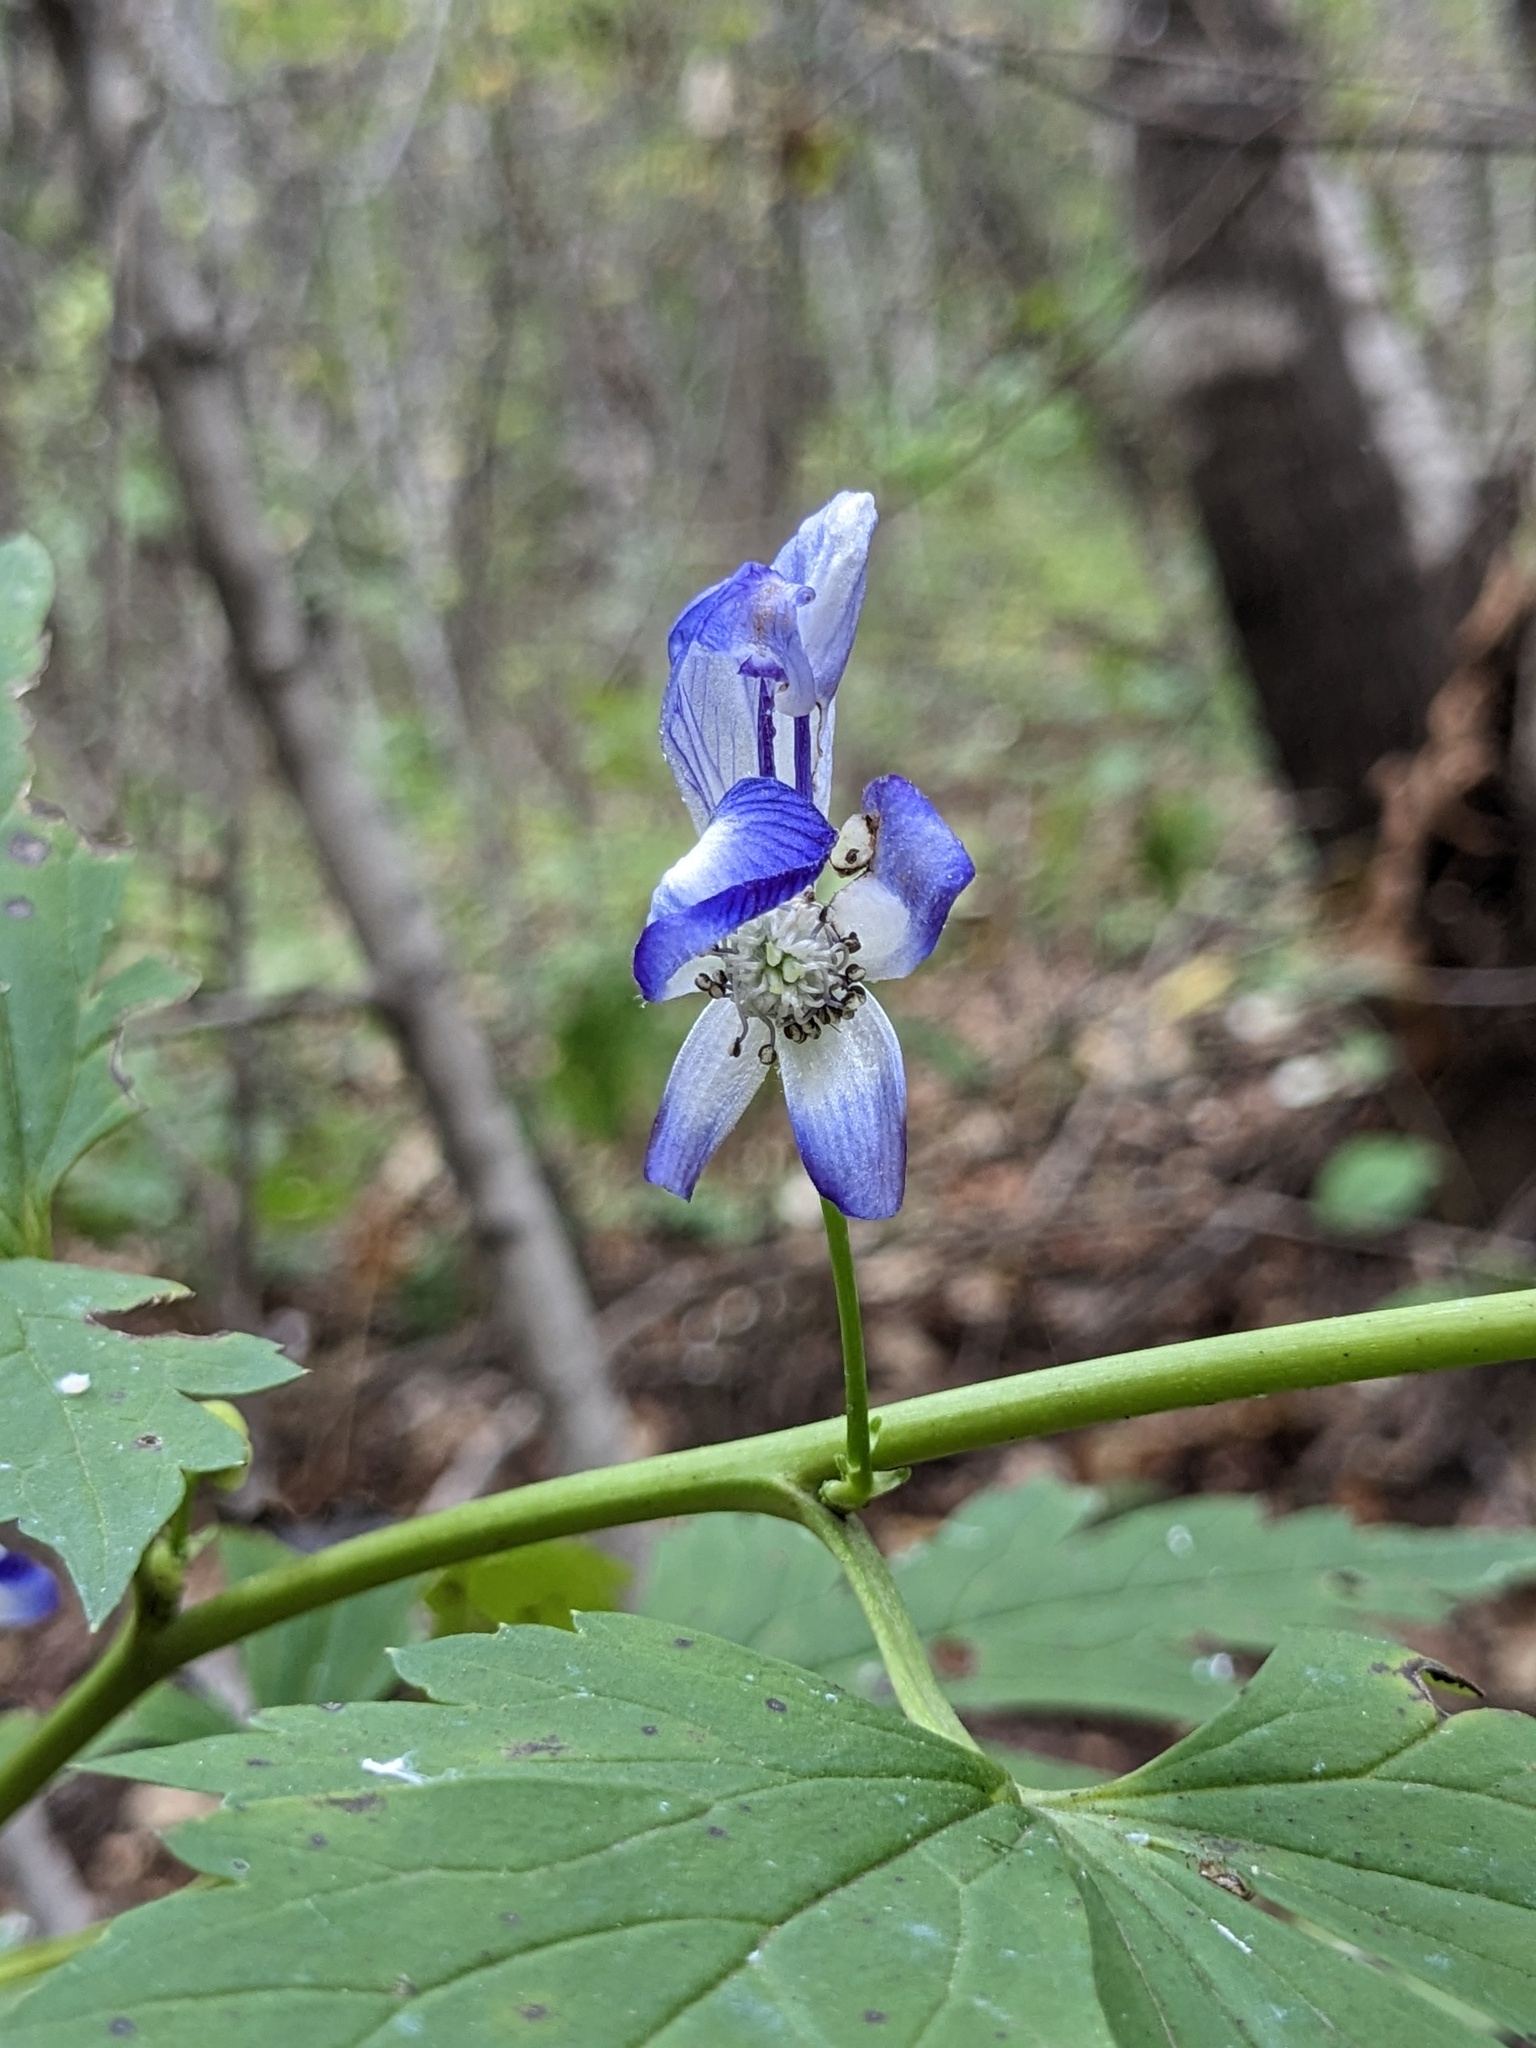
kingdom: Plantae
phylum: Tracheophyta
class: Magnoliopsida
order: Ranunculales
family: Ranunculaceae
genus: Aconitum
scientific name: Aconitum sczukinii
